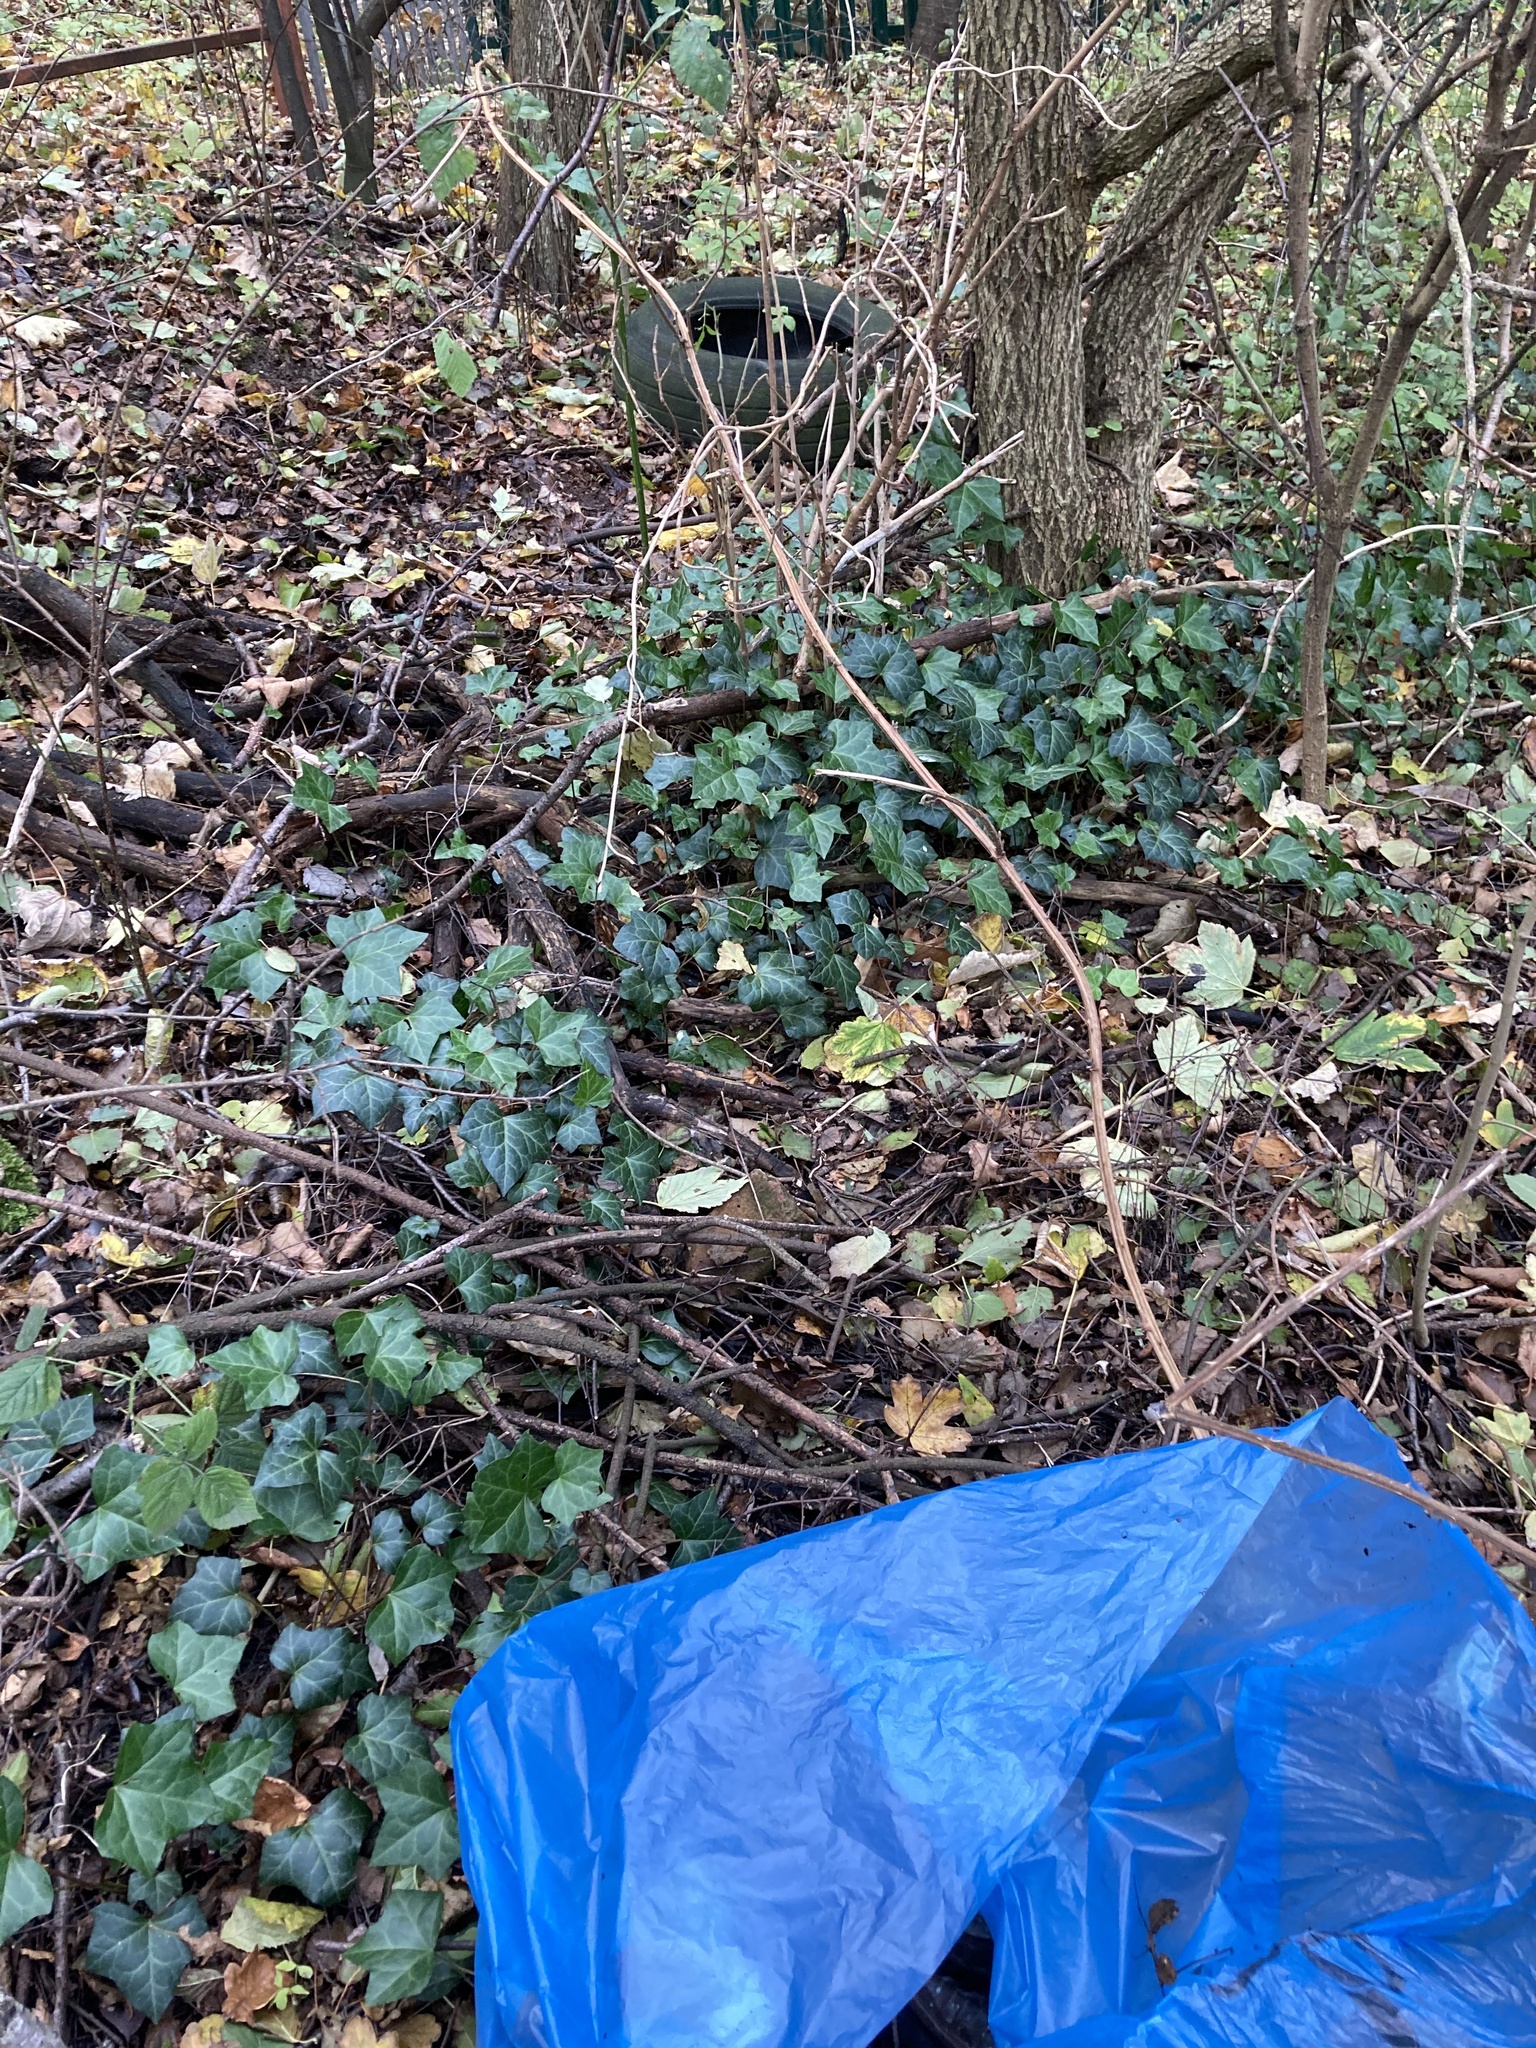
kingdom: Plantae
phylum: Tracheophyta
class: Magnoliopsida
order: Apiales
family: Araliaceae
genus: Hedera
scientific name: Hedera helix
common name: Ivy
